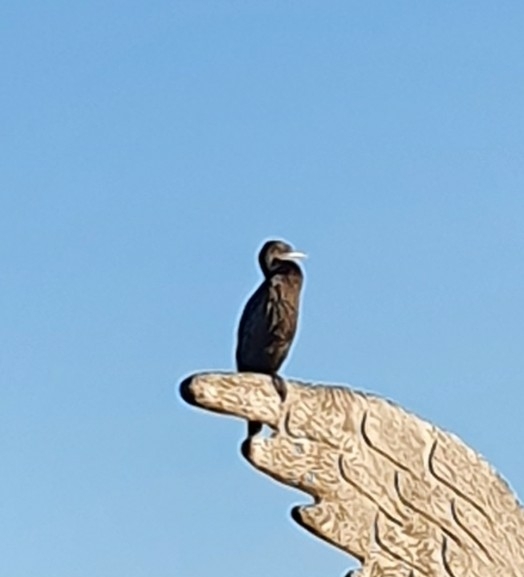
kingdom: Animalia
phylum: Chordata
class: Aves
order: Suliformes
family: Phalacrocoracidae
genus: Phalacrocorax
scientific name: Phalacrocorax sulcirostris
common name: Little black cormorant
